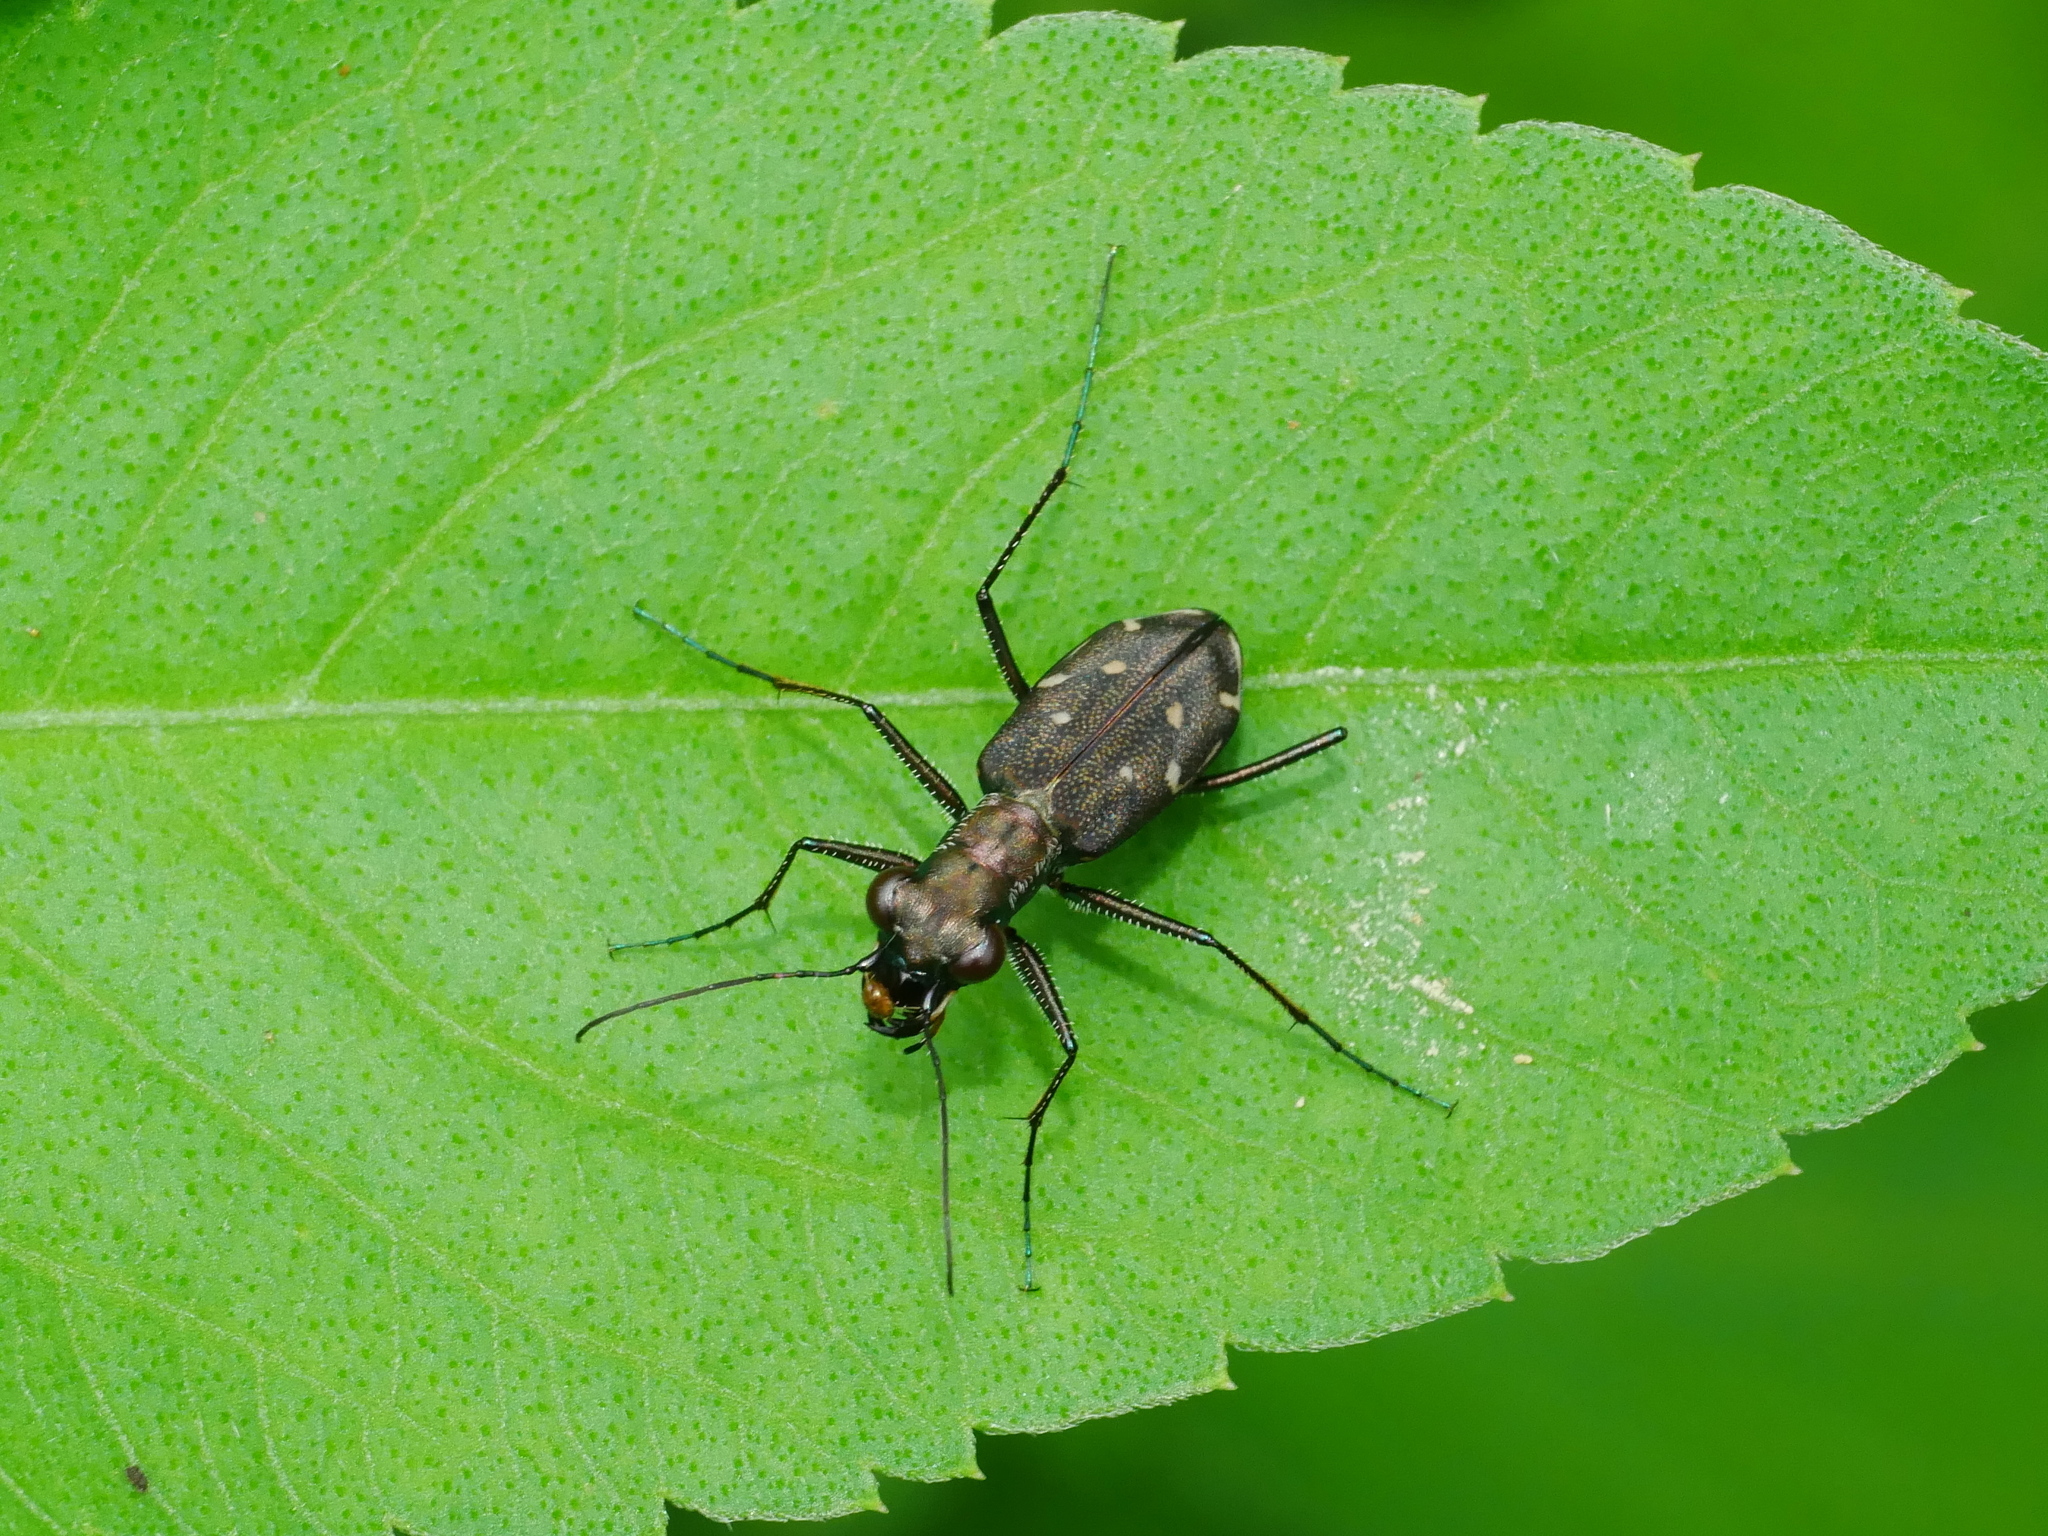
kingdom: Animalia
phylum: Arthropoda
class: Insecta
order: Coleoptera
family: Carabidae
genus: Cylindera
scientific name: Cylindera kaleea
